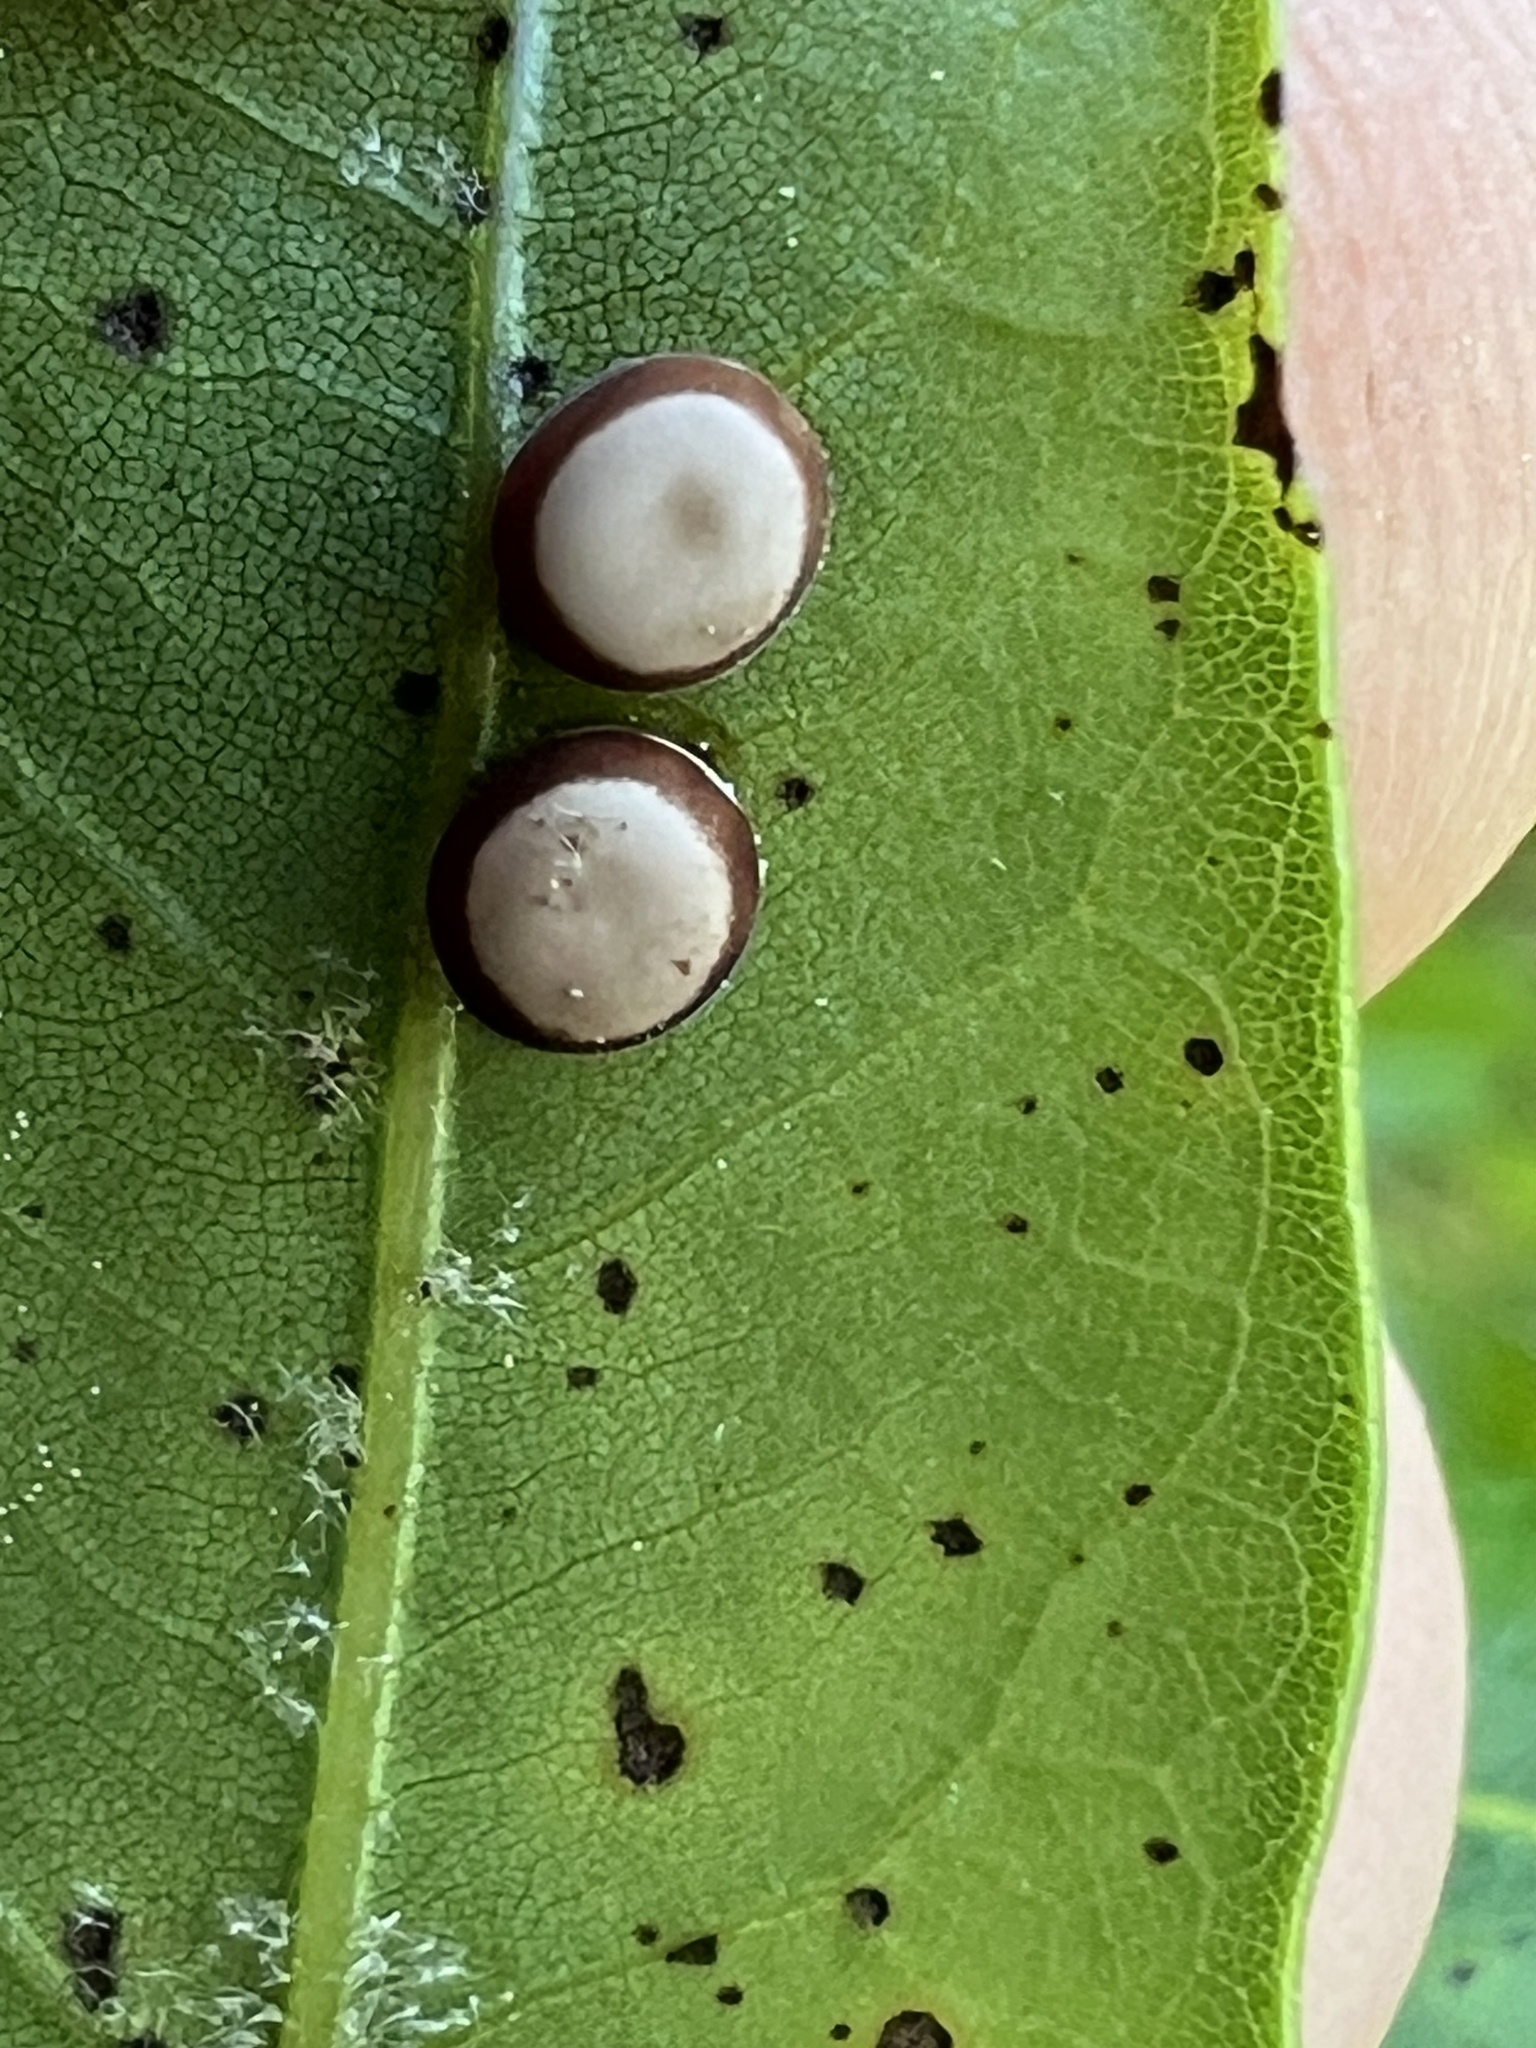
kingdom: Animalia
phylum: Arthropoda
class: Insecta
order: Lepidoptera
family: Saturniidae
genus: Antheraea
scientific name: Antheraea polyphemus
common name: Polyphemus moth
